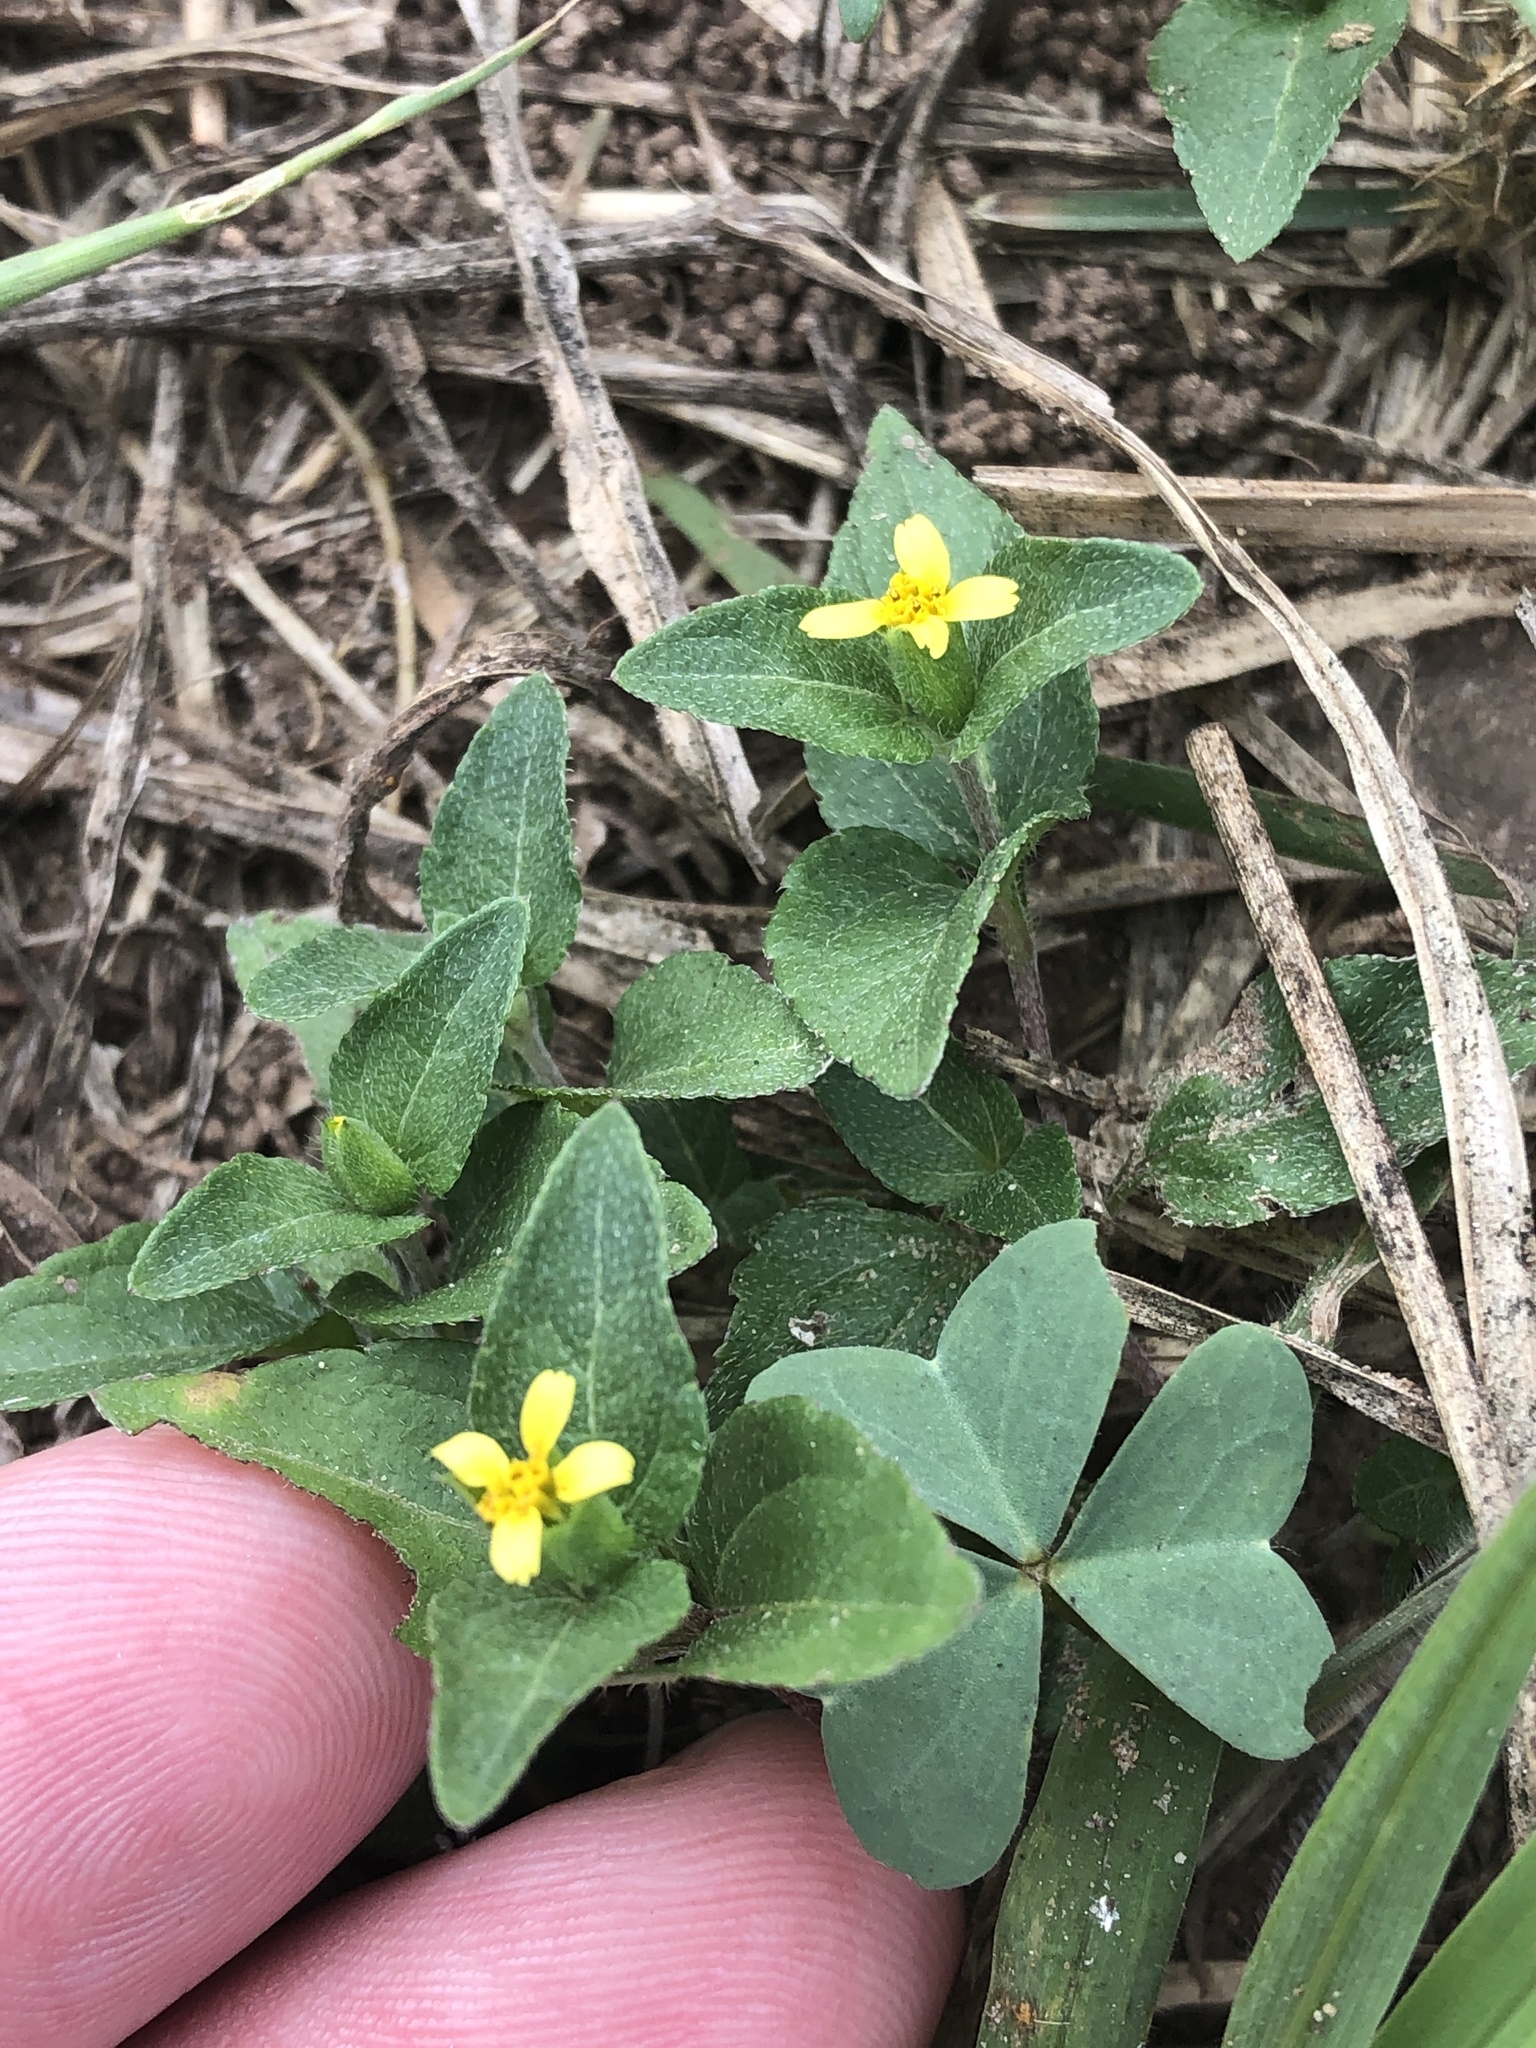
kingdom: Plantae
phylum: Tracheophyta
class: Magnoliopsida
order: Asterales
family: Asteraceae
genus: Calyptocarpus
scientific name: Calyptocarpus vialis
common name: Straggler daisy
